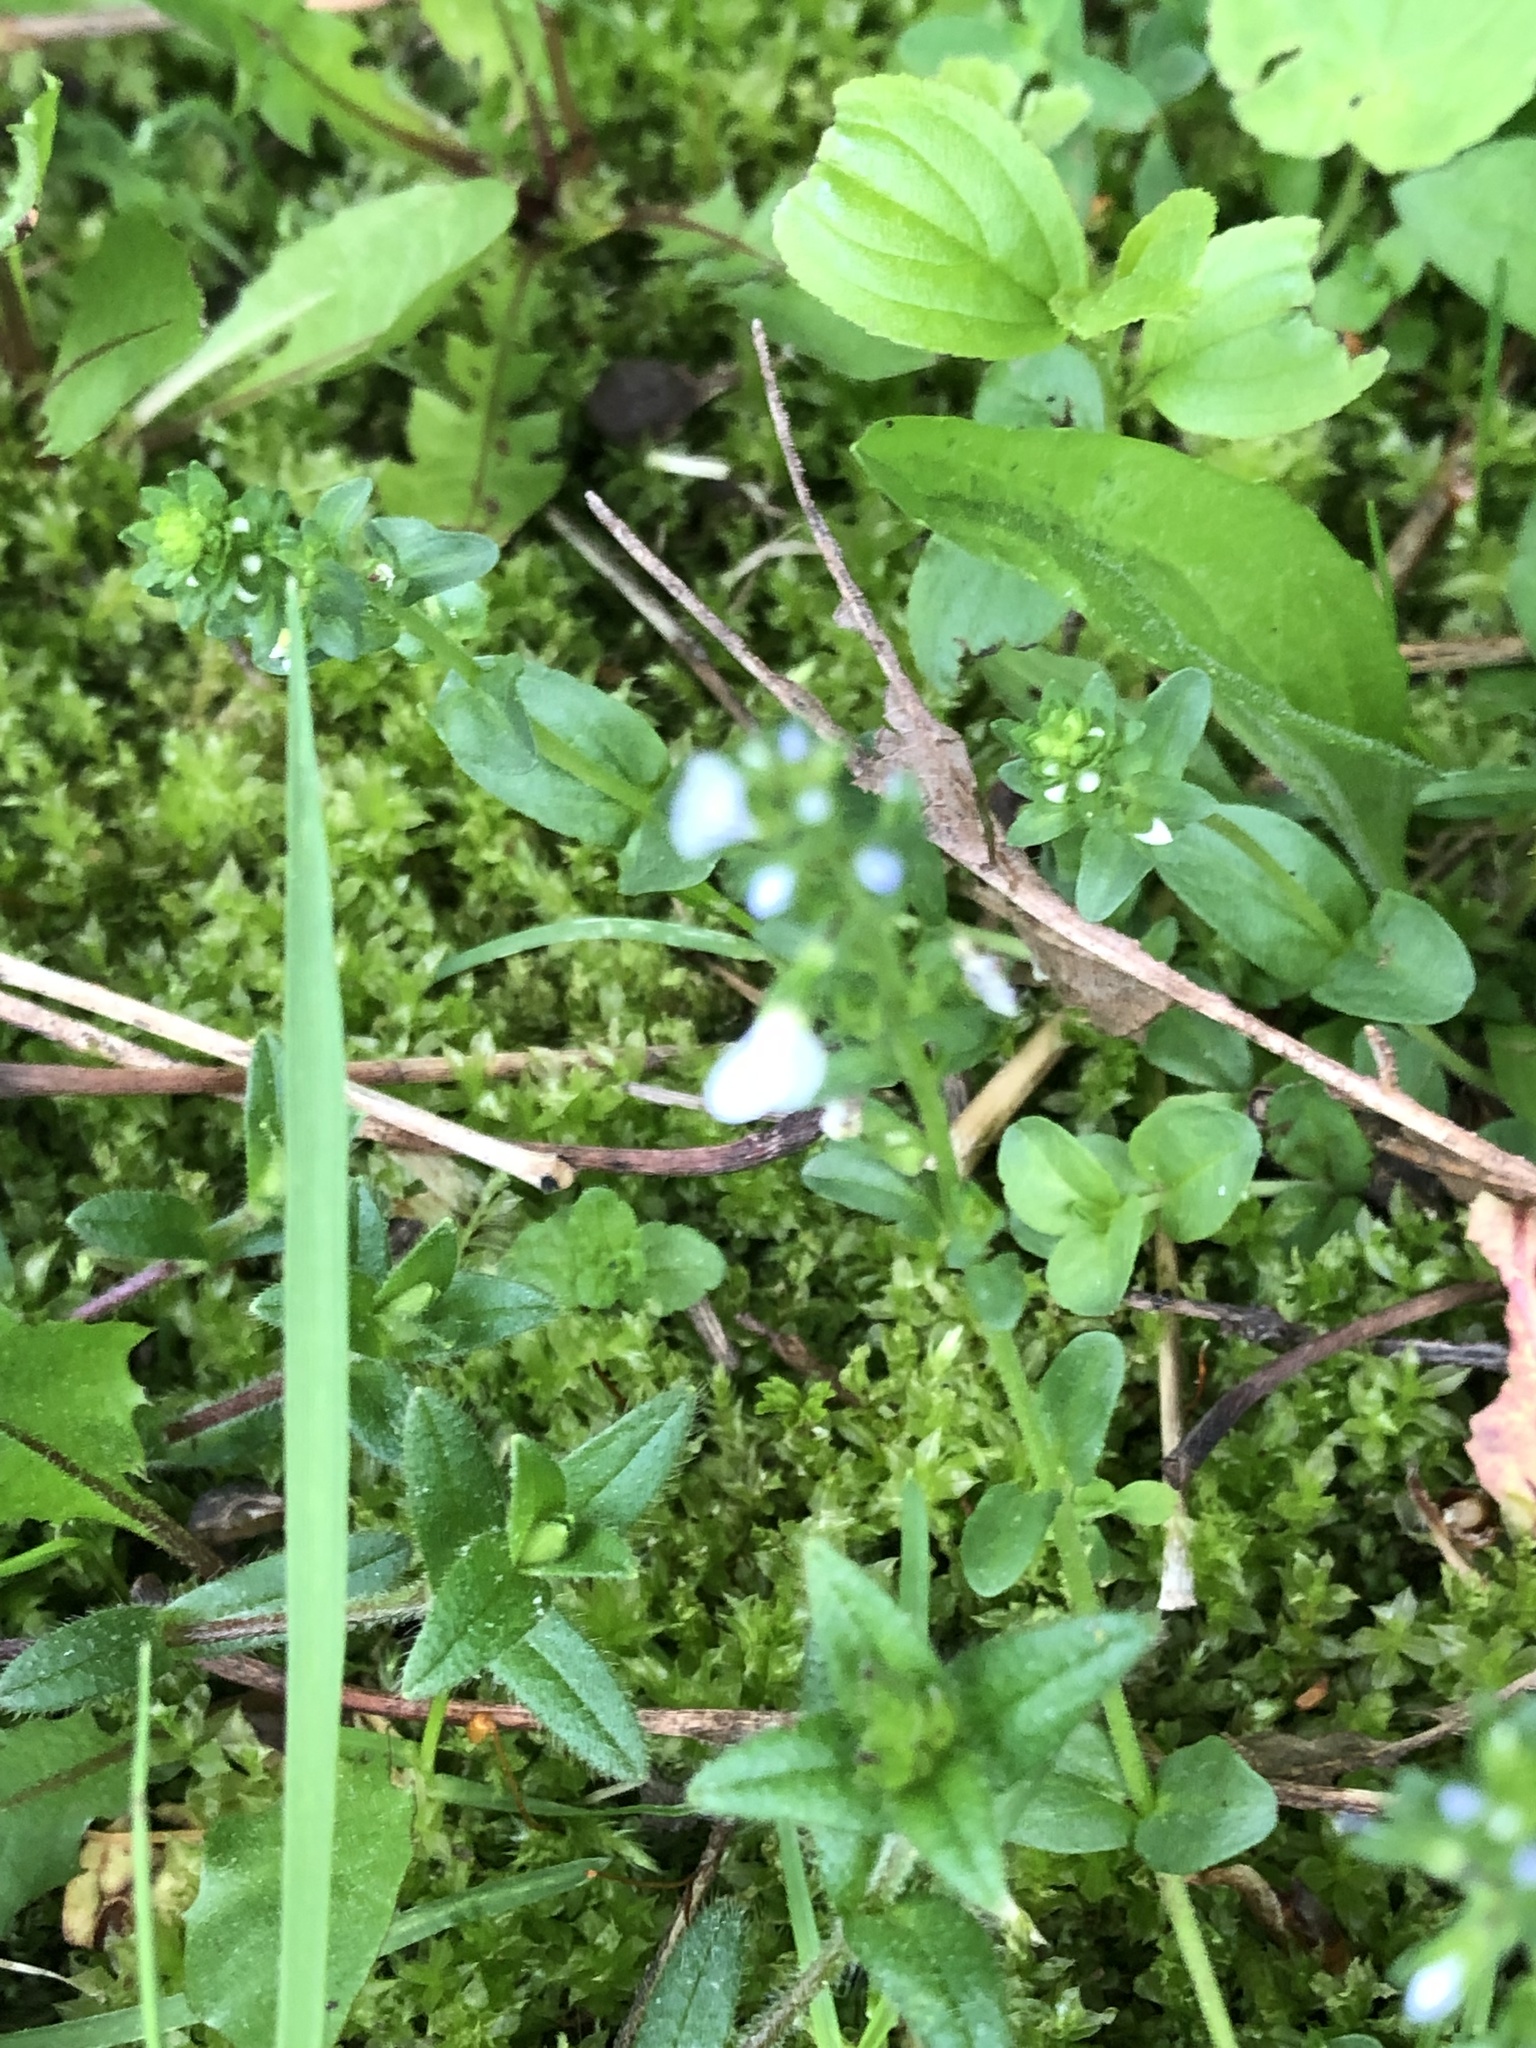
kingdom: Plantae
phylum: Tracheophyta
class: Magnoliopsida
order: Lamiales
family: Plantaginaceae
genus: Veronica
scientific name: Veronica serpyllifolia
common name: Thyme-leaved speedwell
